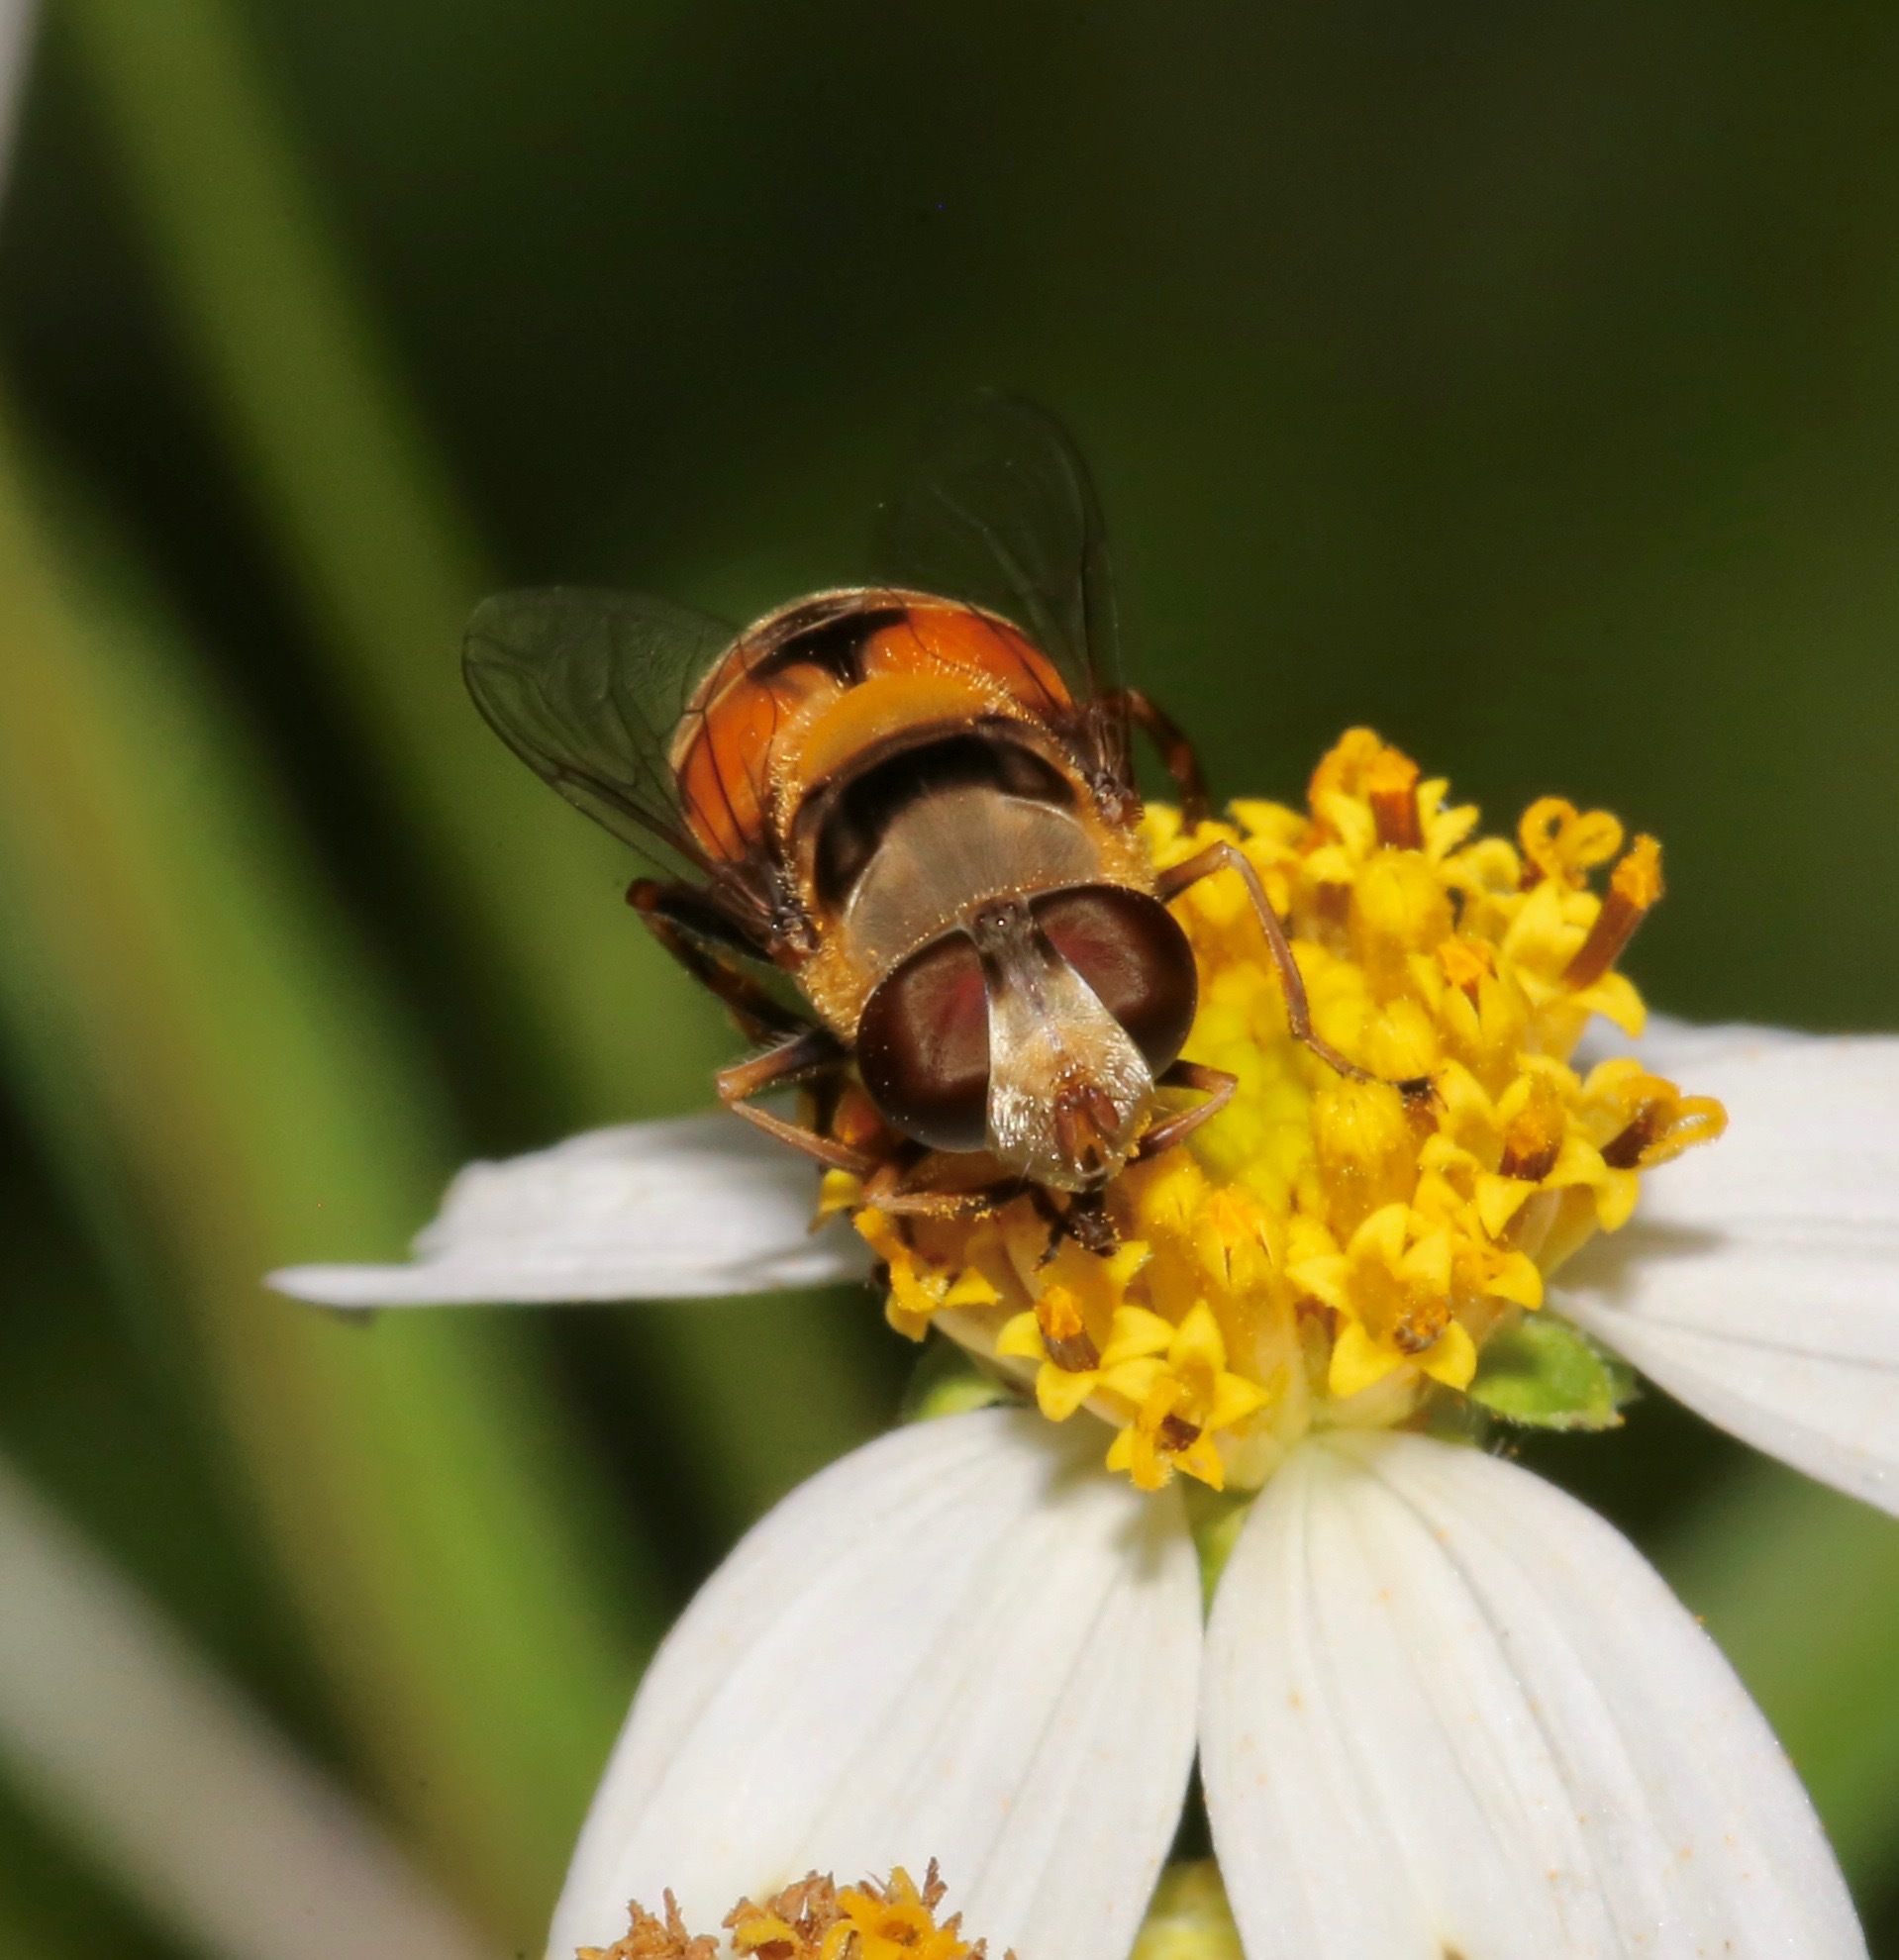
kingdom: Animalia
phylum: Arthropoda
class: Insecta
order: Diptera
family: Syrphidae
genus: Palpada
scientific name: Palpada pusilla
